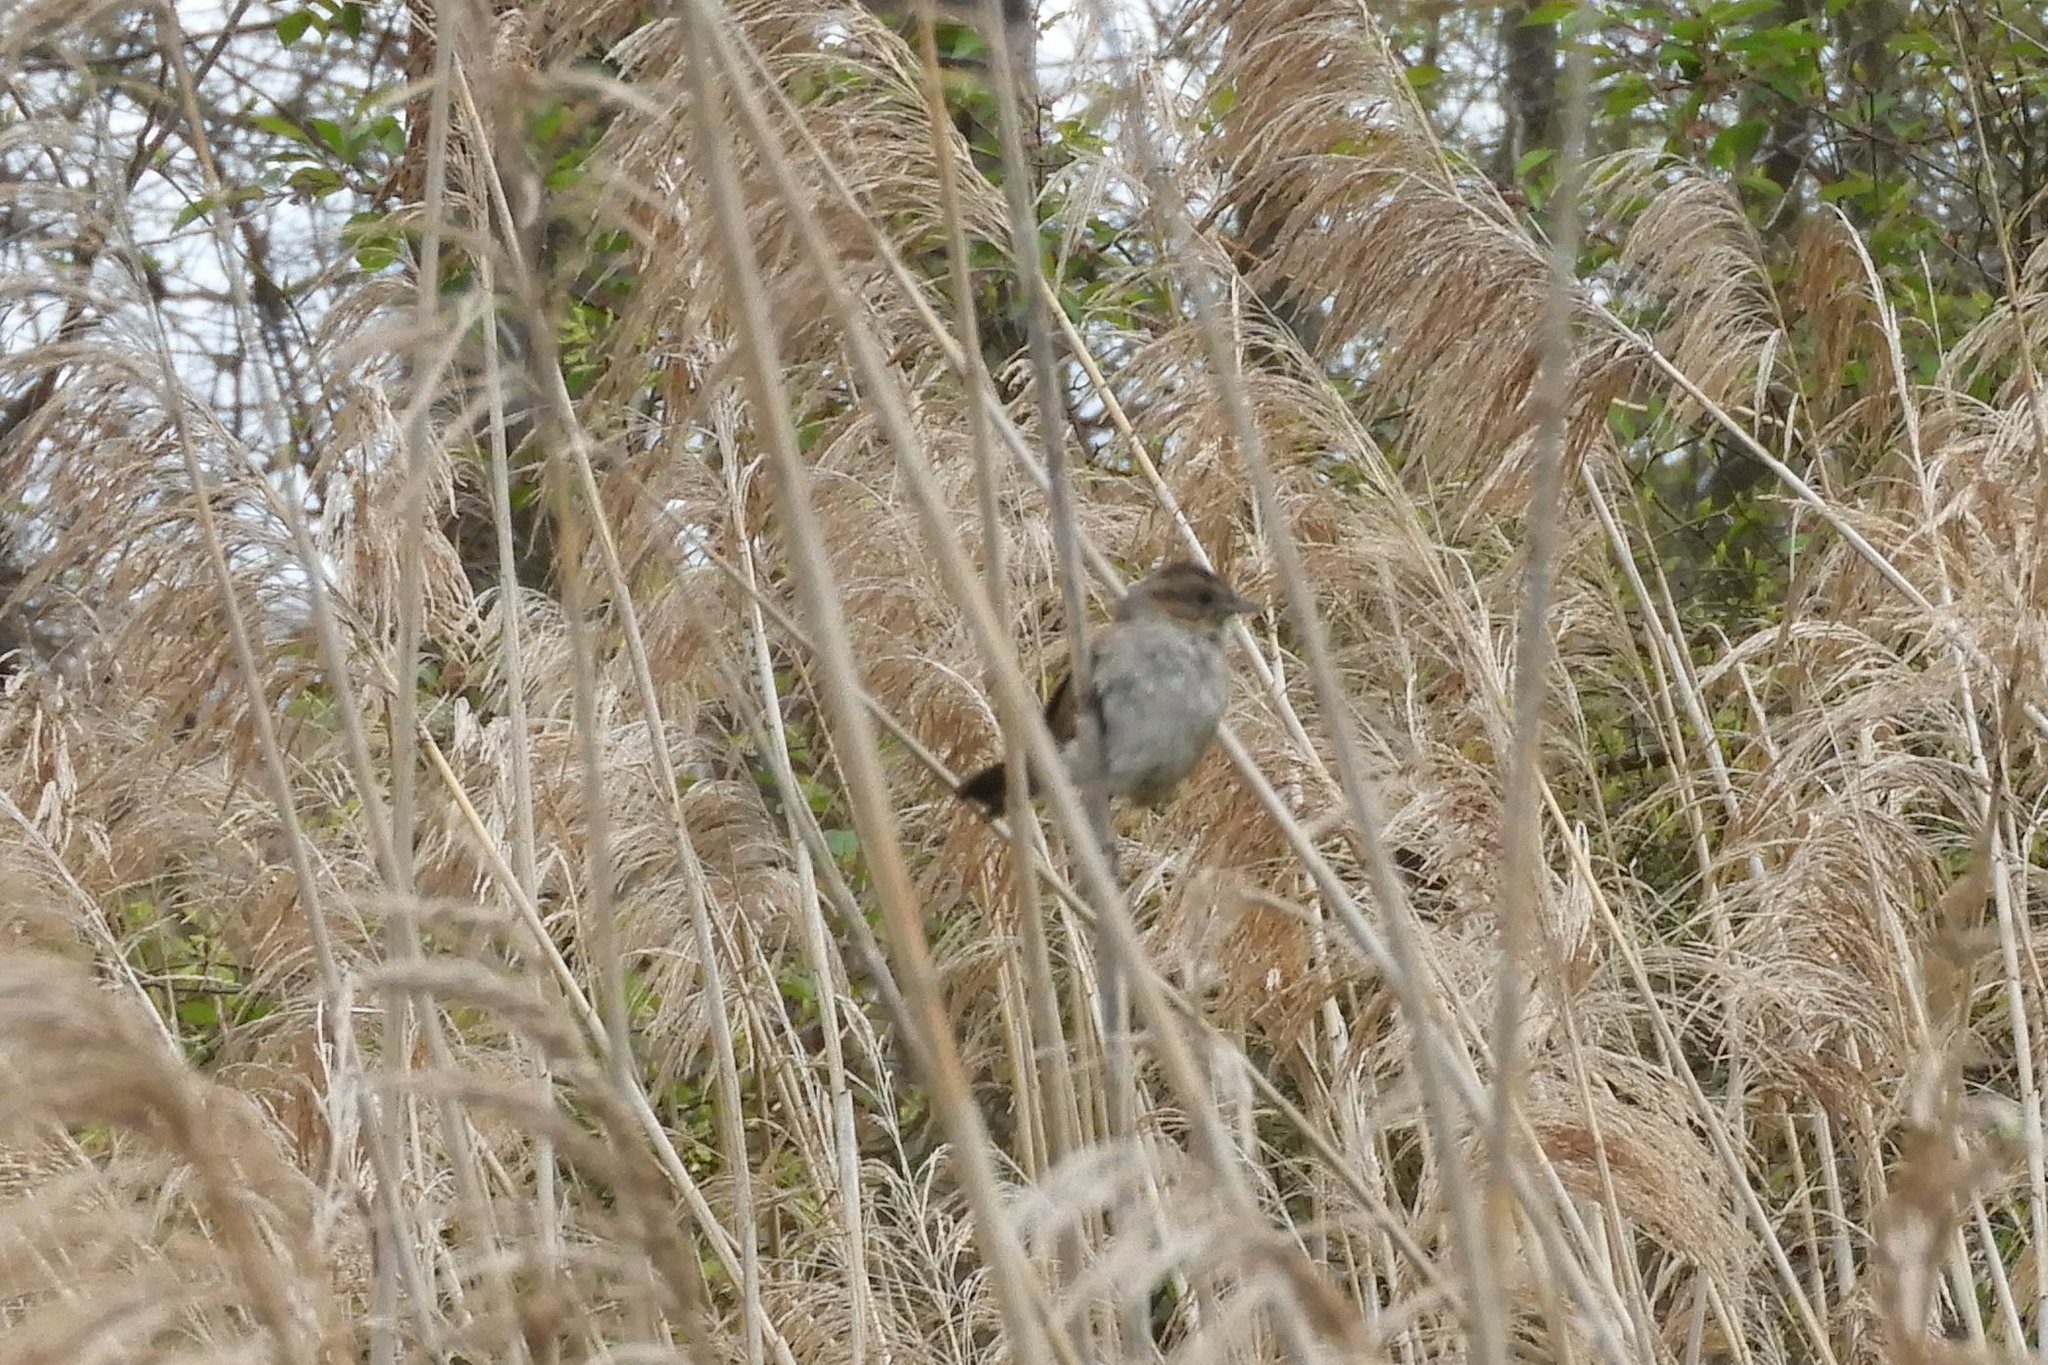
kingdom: Animalia
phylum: Chordata
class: Aves
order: Passeriformes
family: Passerellidae
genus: Melospiza
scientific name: Melospiza georgiana
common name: Swamp sparrow
